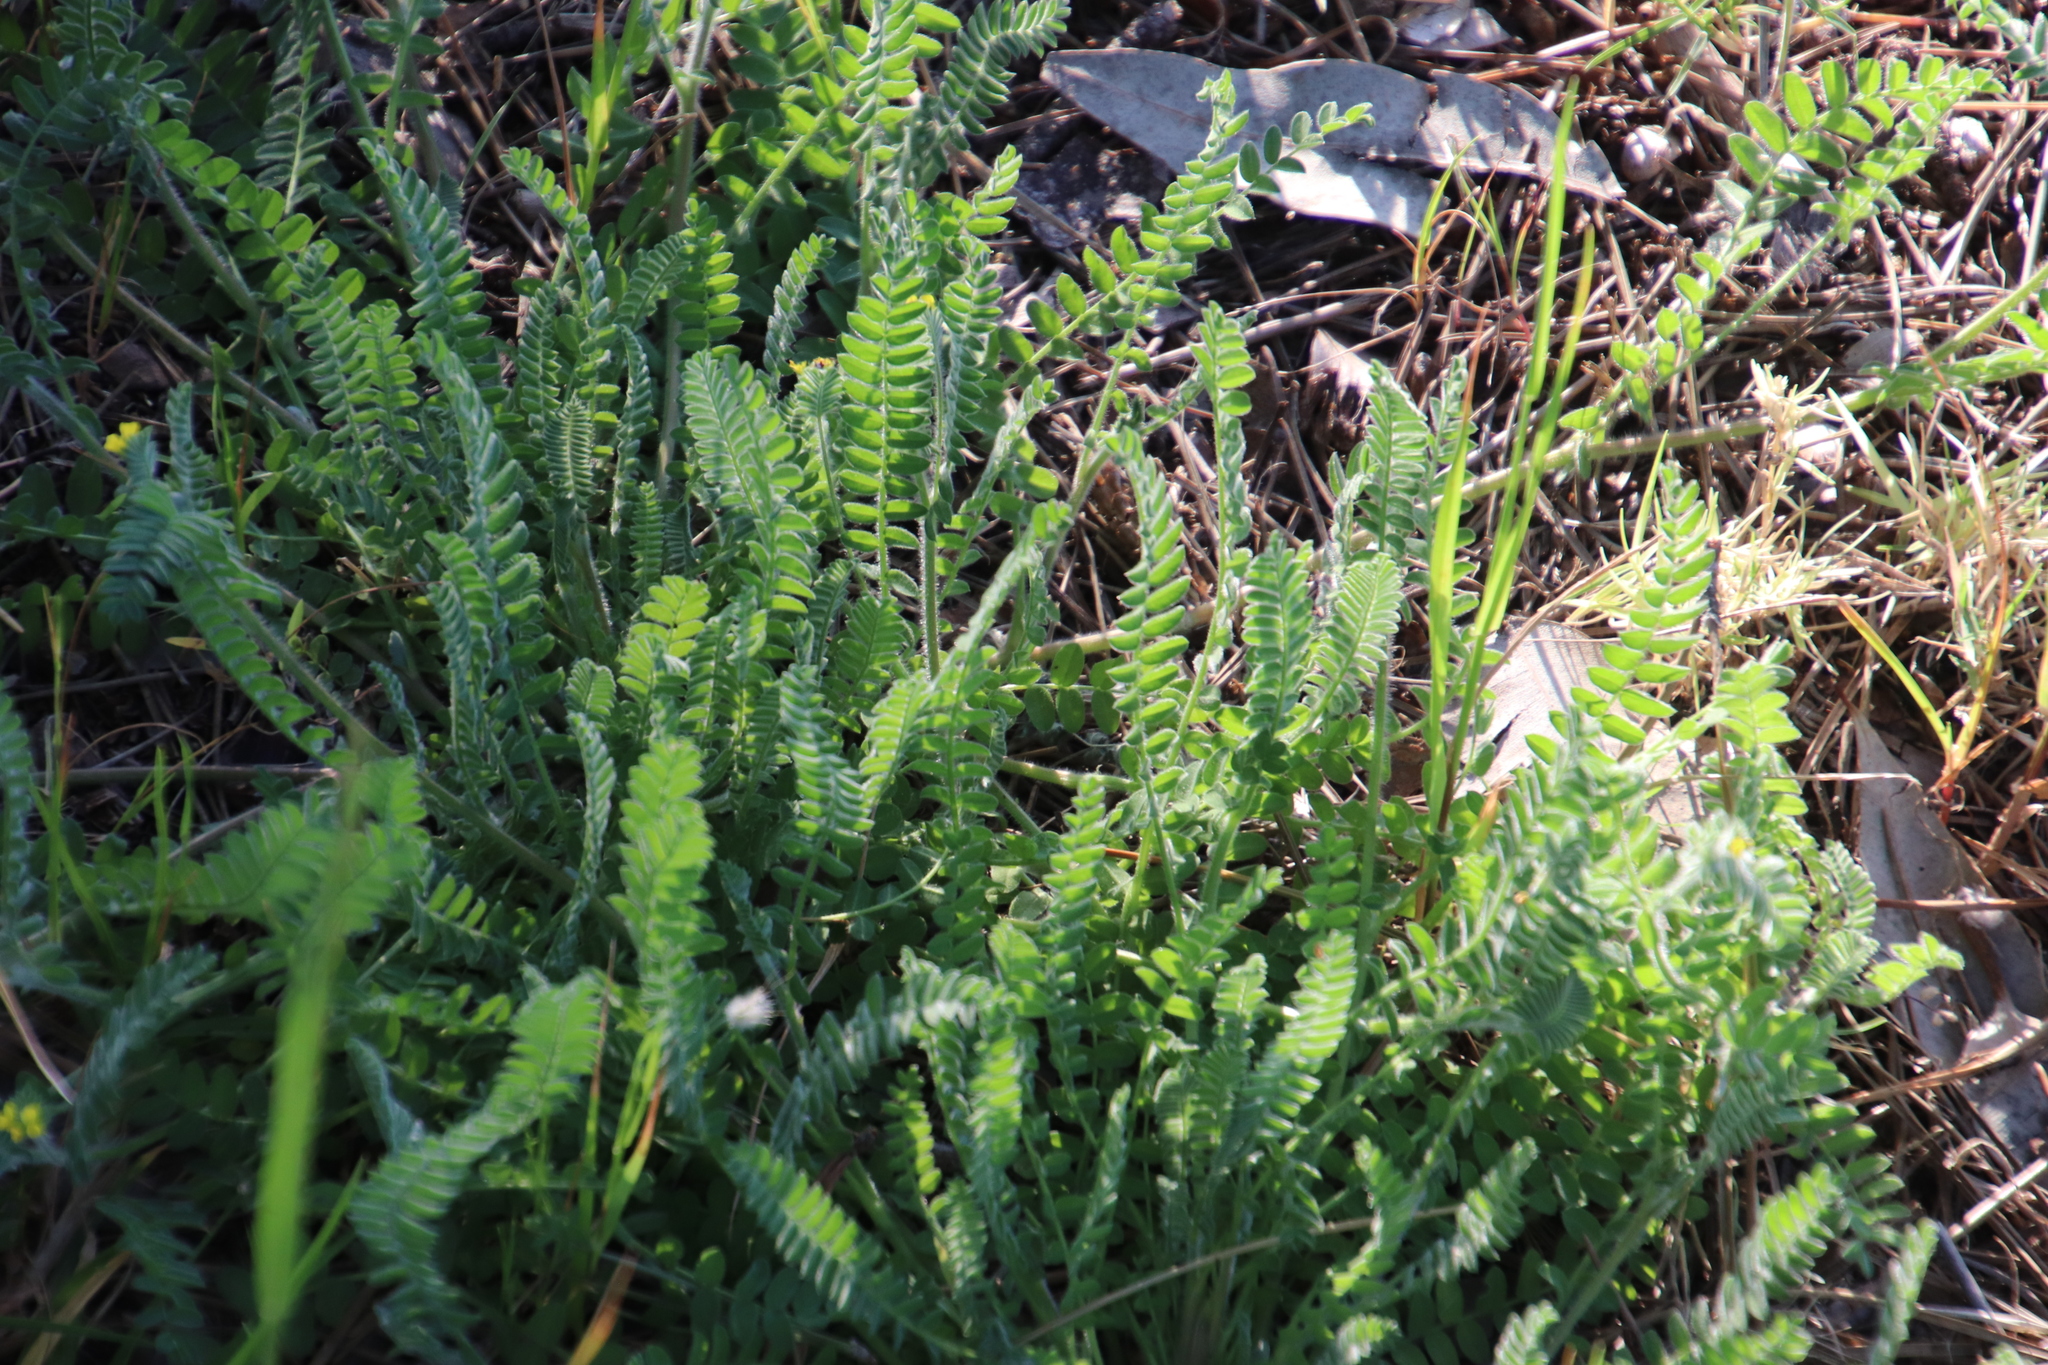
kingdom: Plantae
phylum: Tracheophyta
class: Magnoliopsida
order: Fabales
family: Fabaceae
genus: Ornithopus
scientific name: Ornithopus compressus
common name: Yellow serradella
